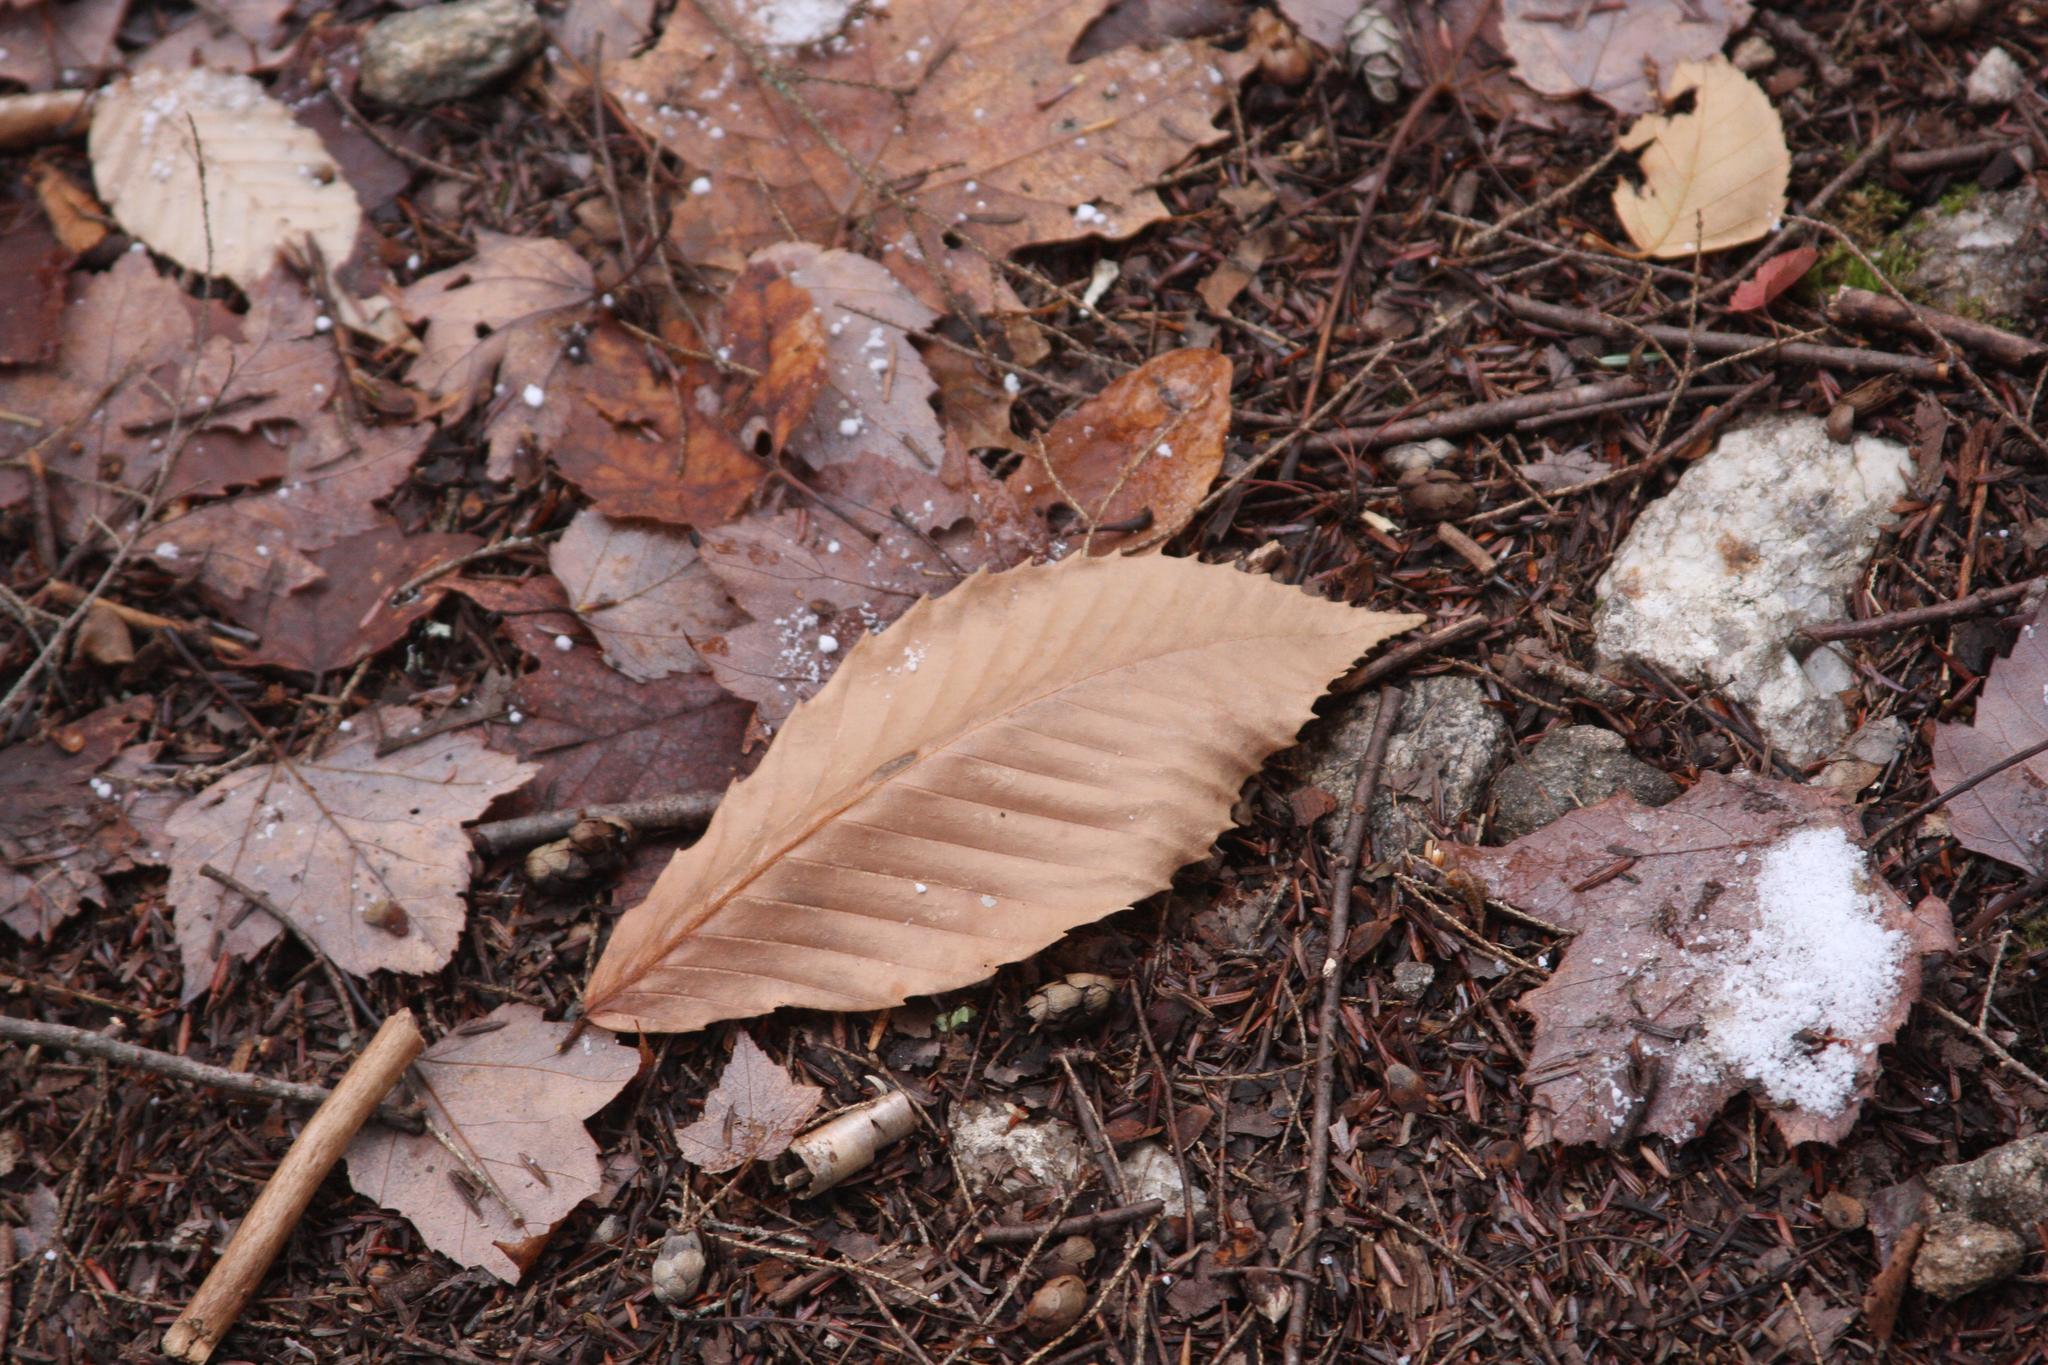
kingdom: Plantae
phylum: Tracheophyta
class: Magnoliopsida
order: Fagales
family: Fagaceae
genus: Fagus
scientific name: Fagus grandifolia
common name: American beech
